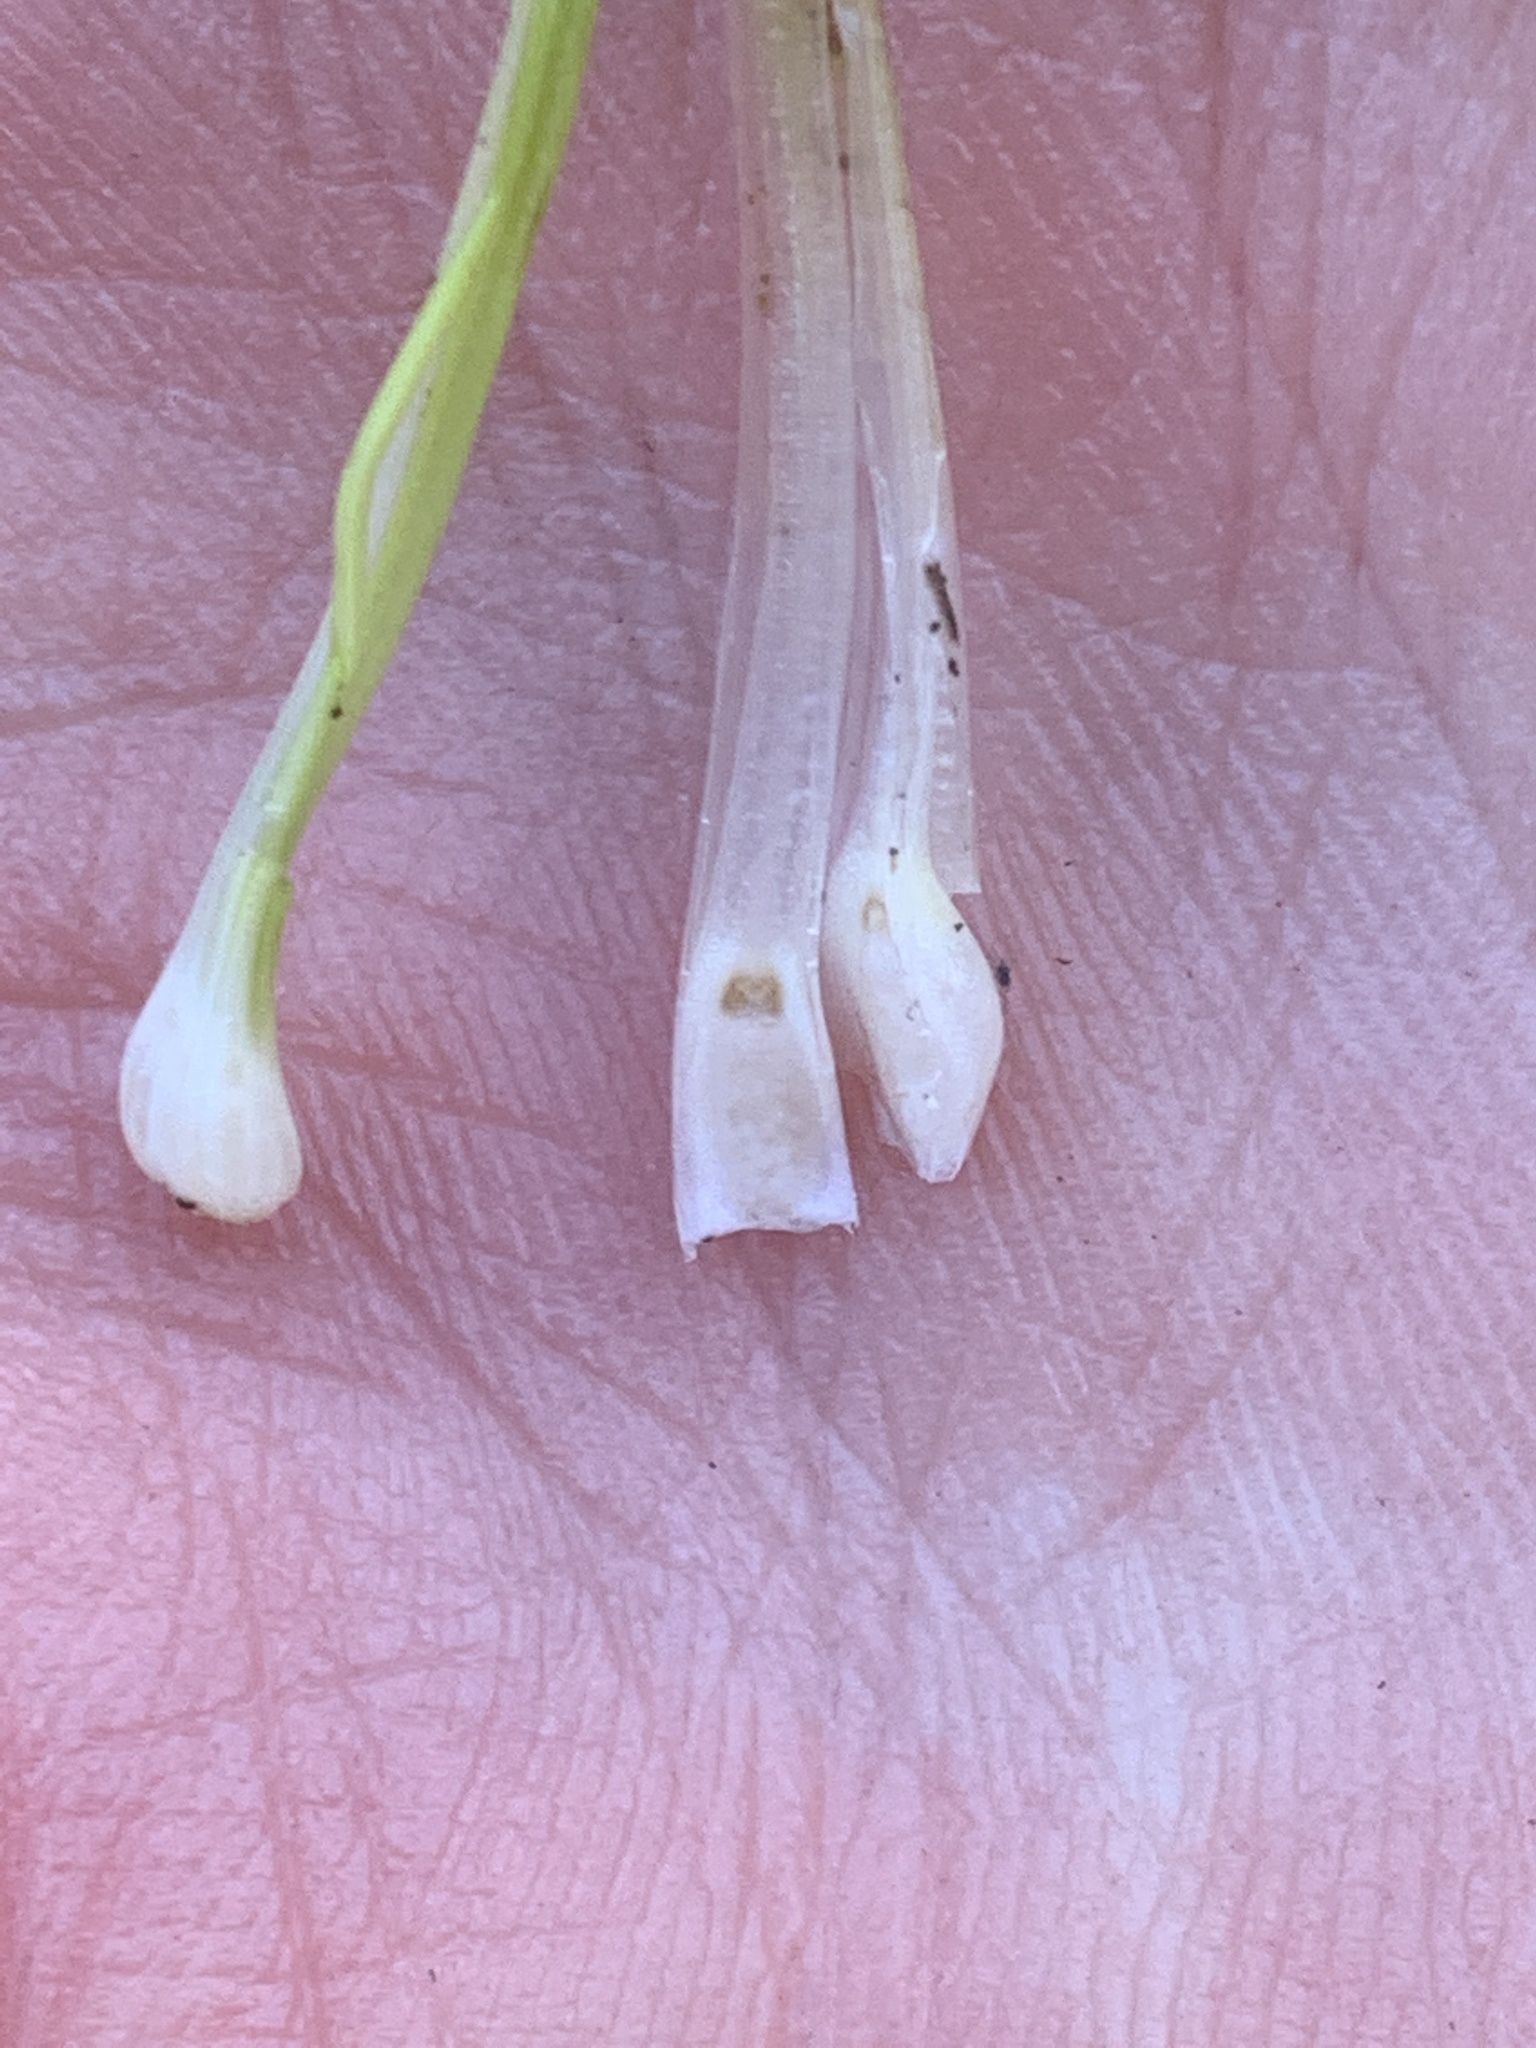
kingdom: Plantae
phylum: Tracheophyta
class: Lycopodiopsida
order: Isoetales
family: Isoetaceae
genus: Isoetes
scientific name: Isoetes nuttallii
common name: Nuttall's quillwort
